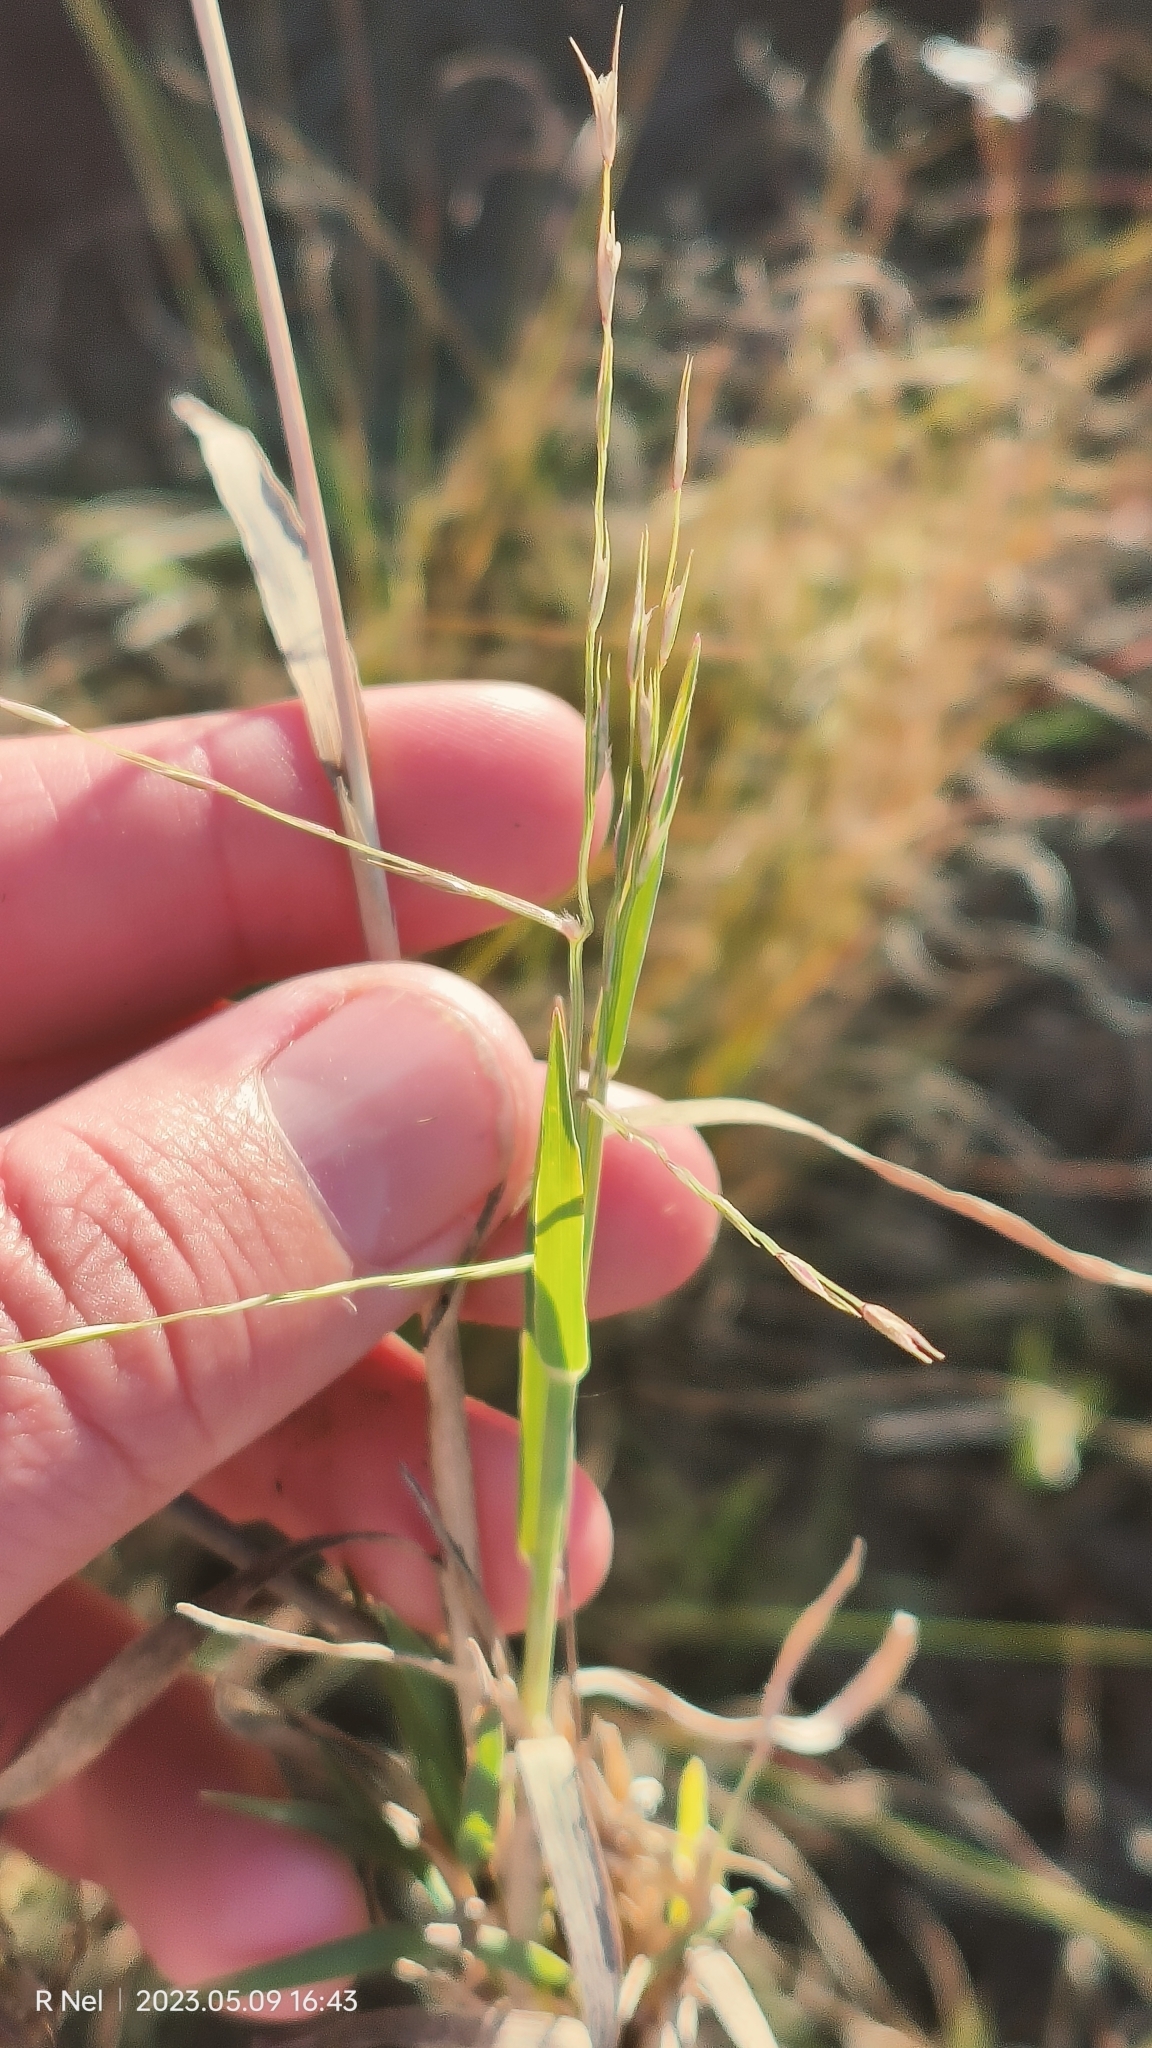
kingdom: Plantae
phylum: Tracheophyta
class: Liliopsida
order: Poales
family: Poaceae
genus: Trichoneura
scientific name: Trichoneura grandiglumis
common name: Rolling grass
